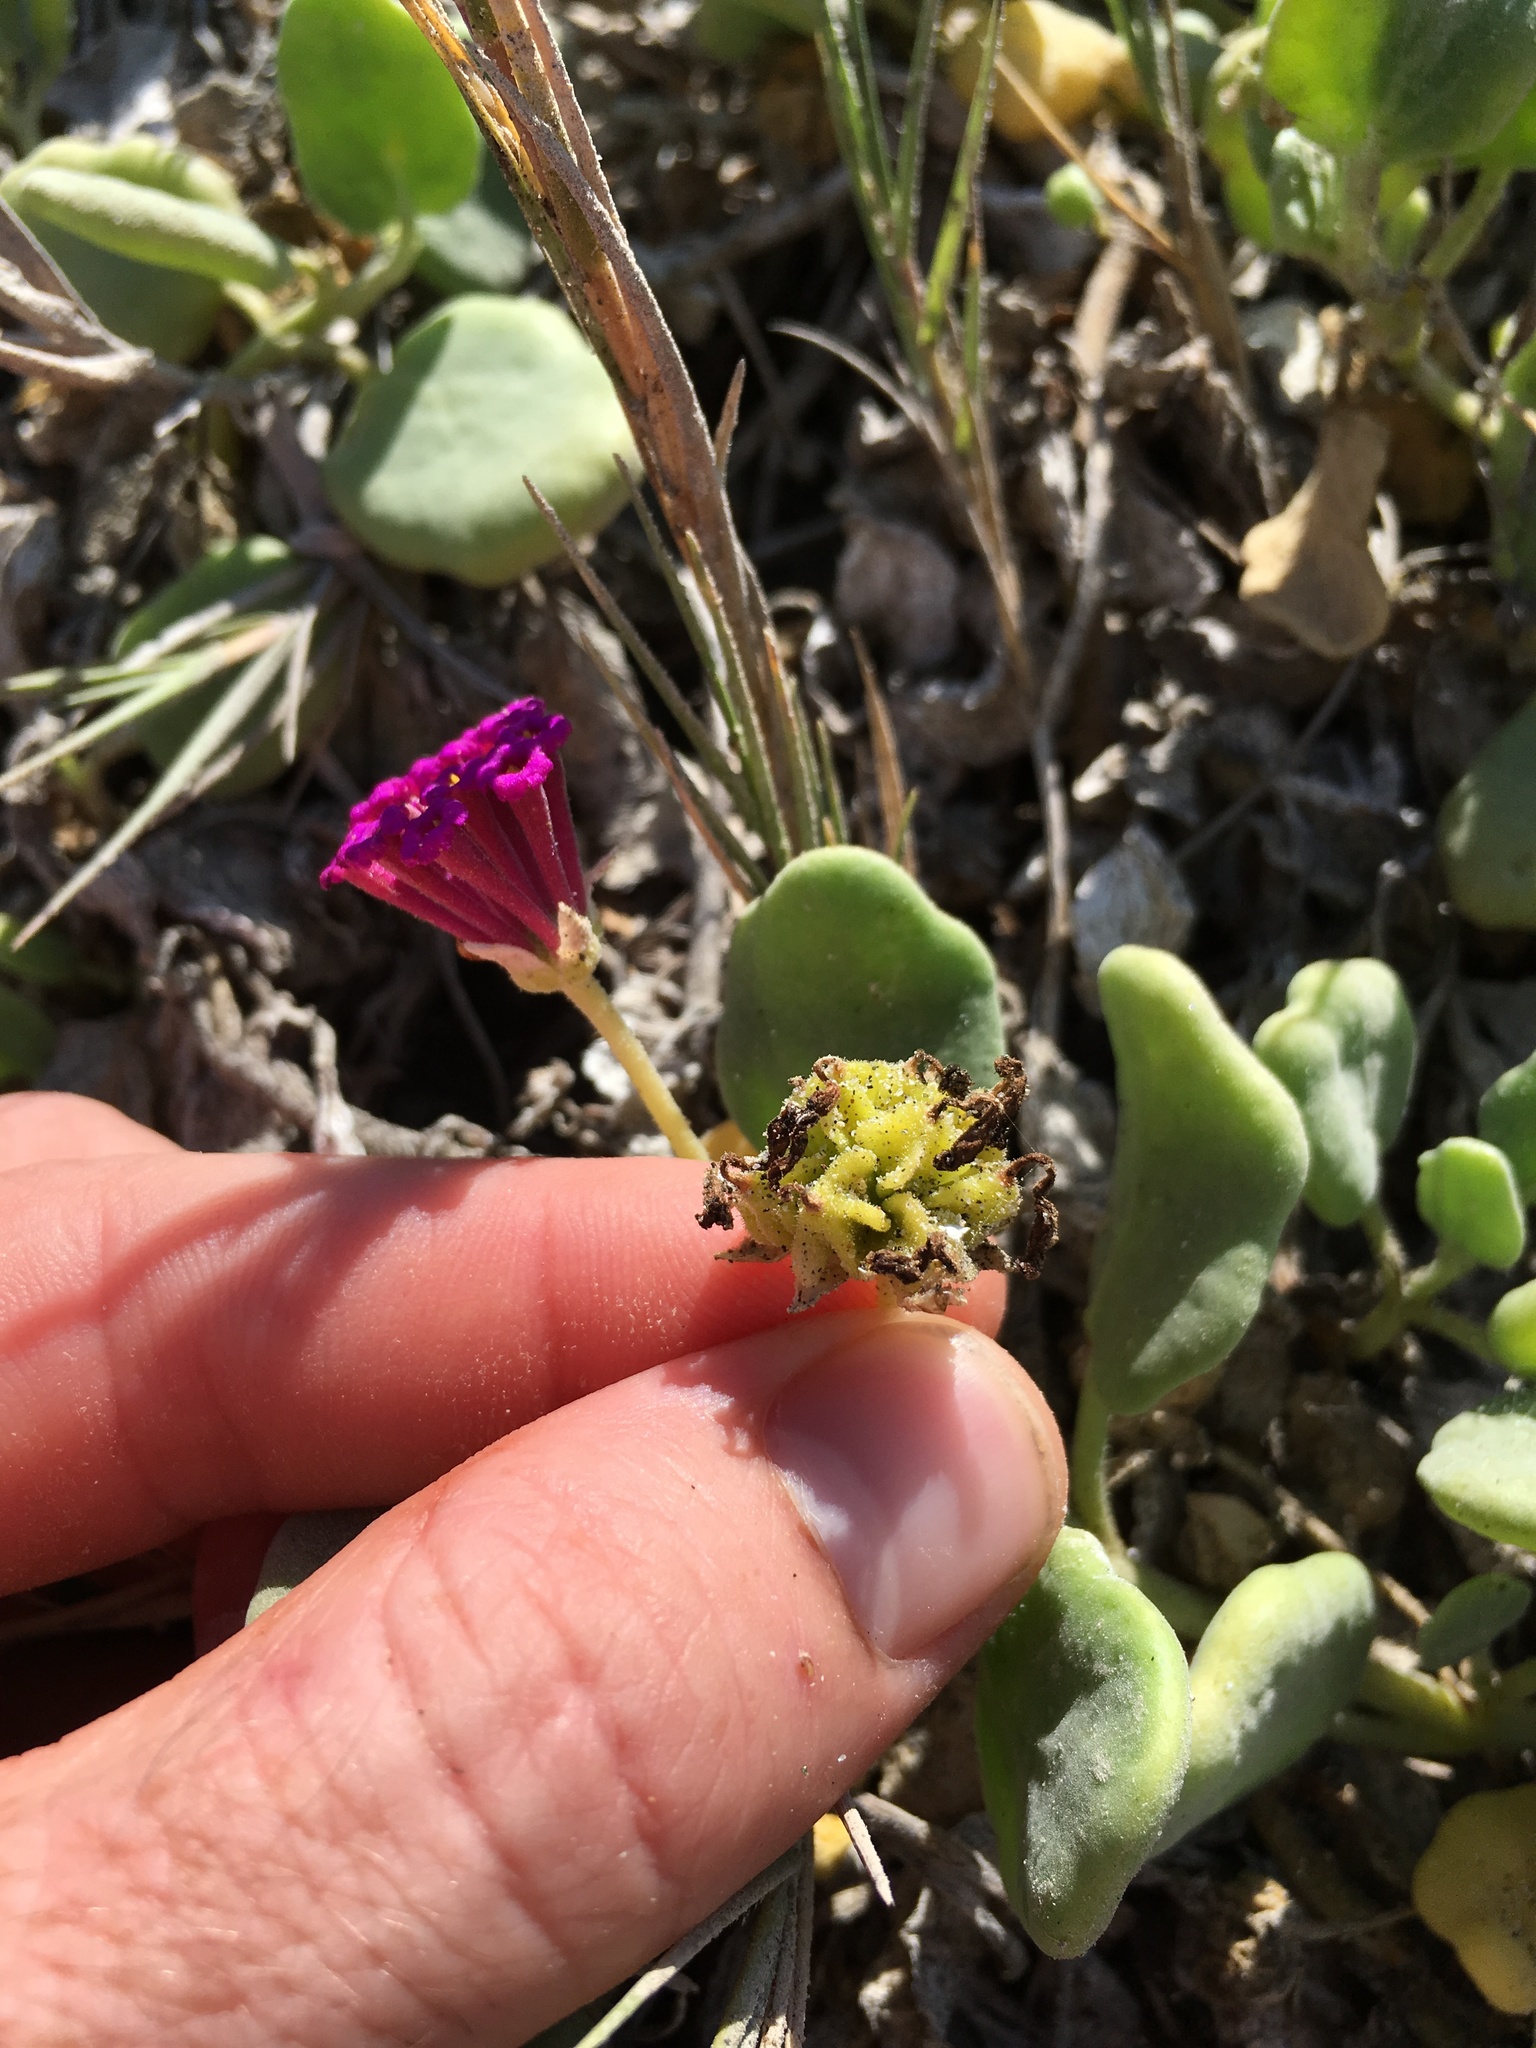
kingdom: Plantae
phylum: Tracheophyta
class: Magnoliopsida
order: Caryophyllales
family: Nyctaginaceae
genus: Abronia
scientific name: Abronia maritima
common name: Red sand-verbena
